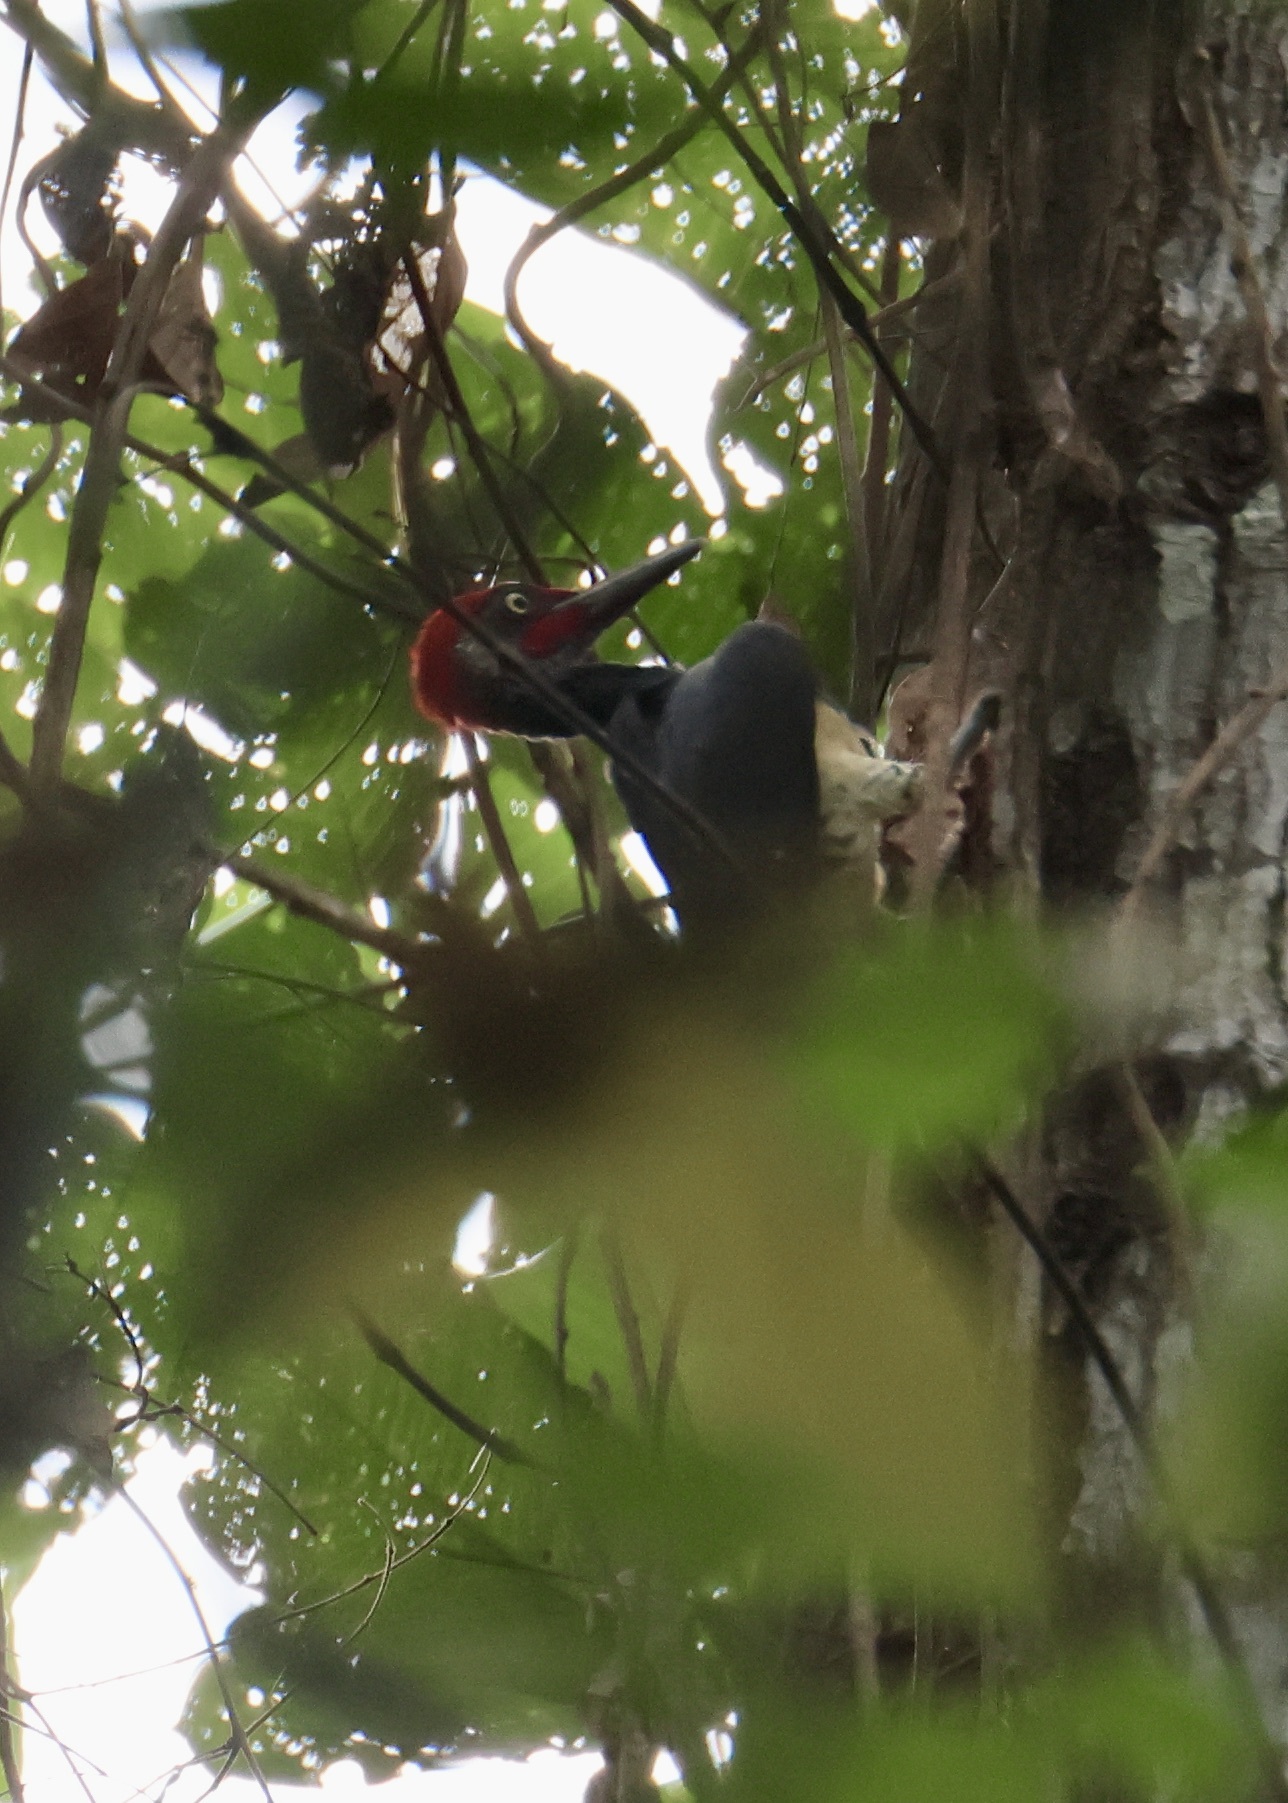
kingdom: Animalia
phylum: Chordata
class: Aves
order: Piciformes
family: Picidae
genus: Dryocopus
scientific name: Dryocopus javensis
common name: White-bellied woodpecker
